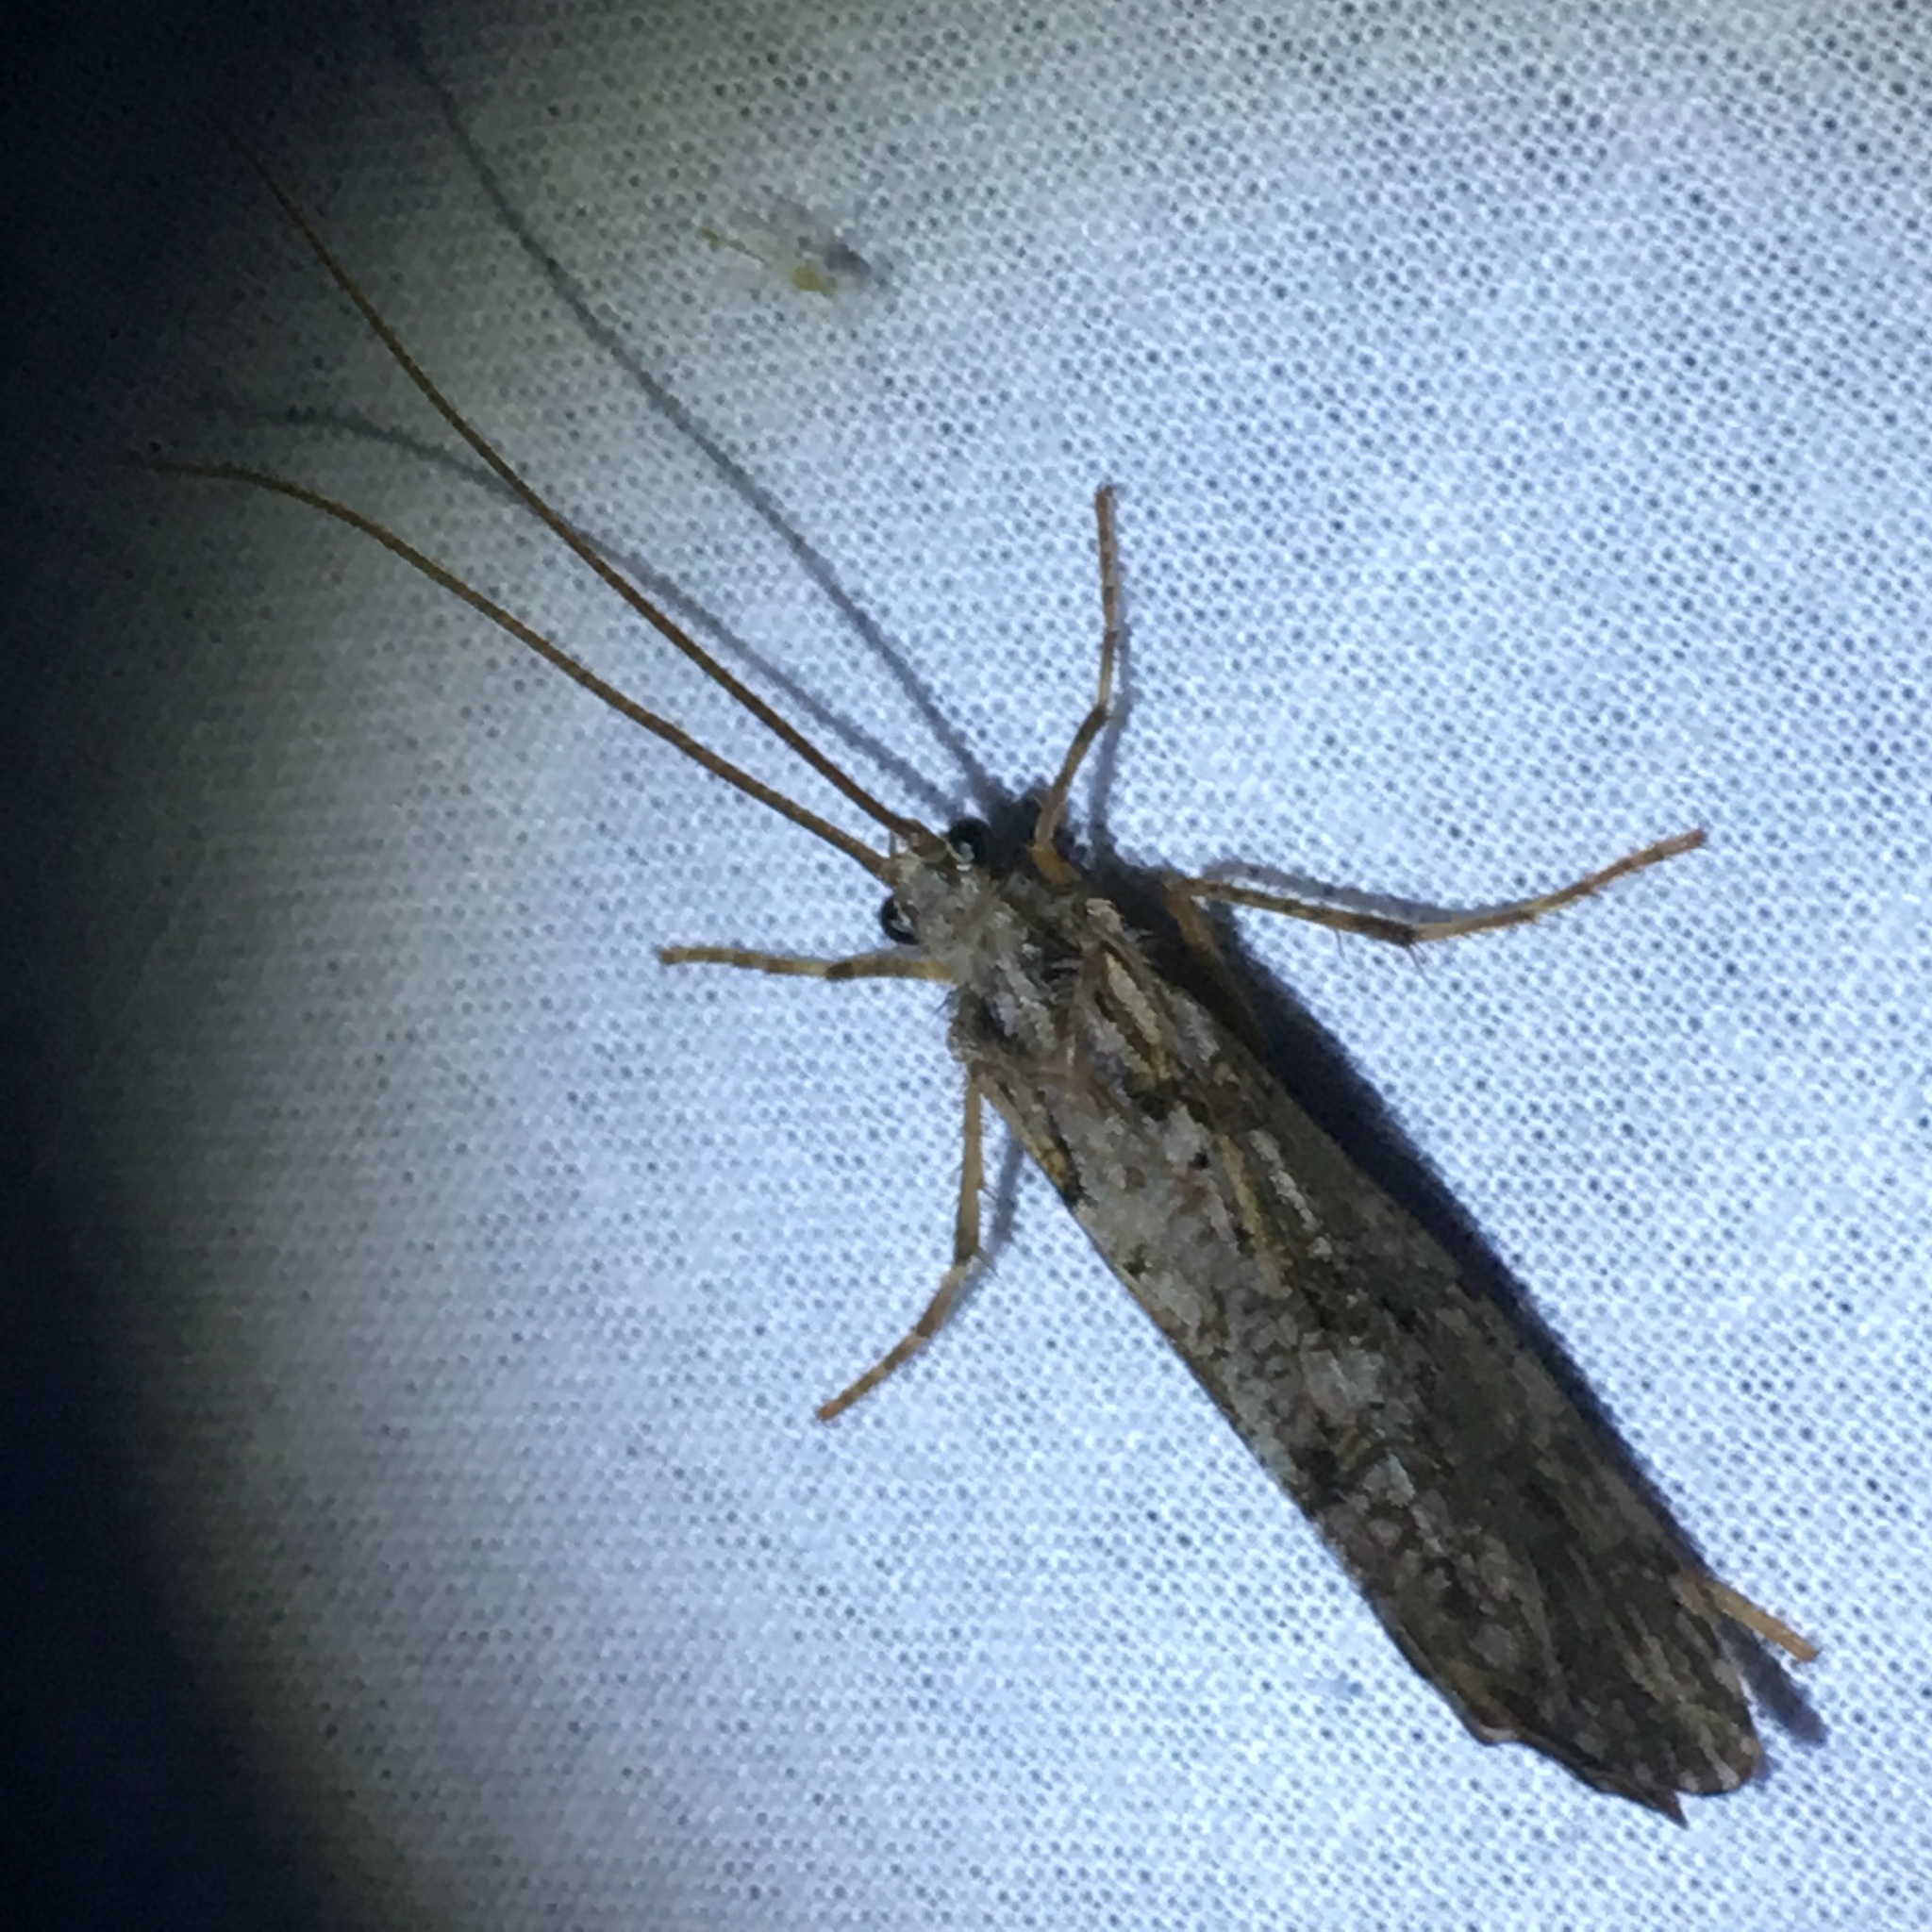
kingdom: Animalia
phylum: Arthropoda
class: Insecta
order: Trichoptera
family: Phryganeidae
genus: Phryganea
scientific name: Phryganea grandis
